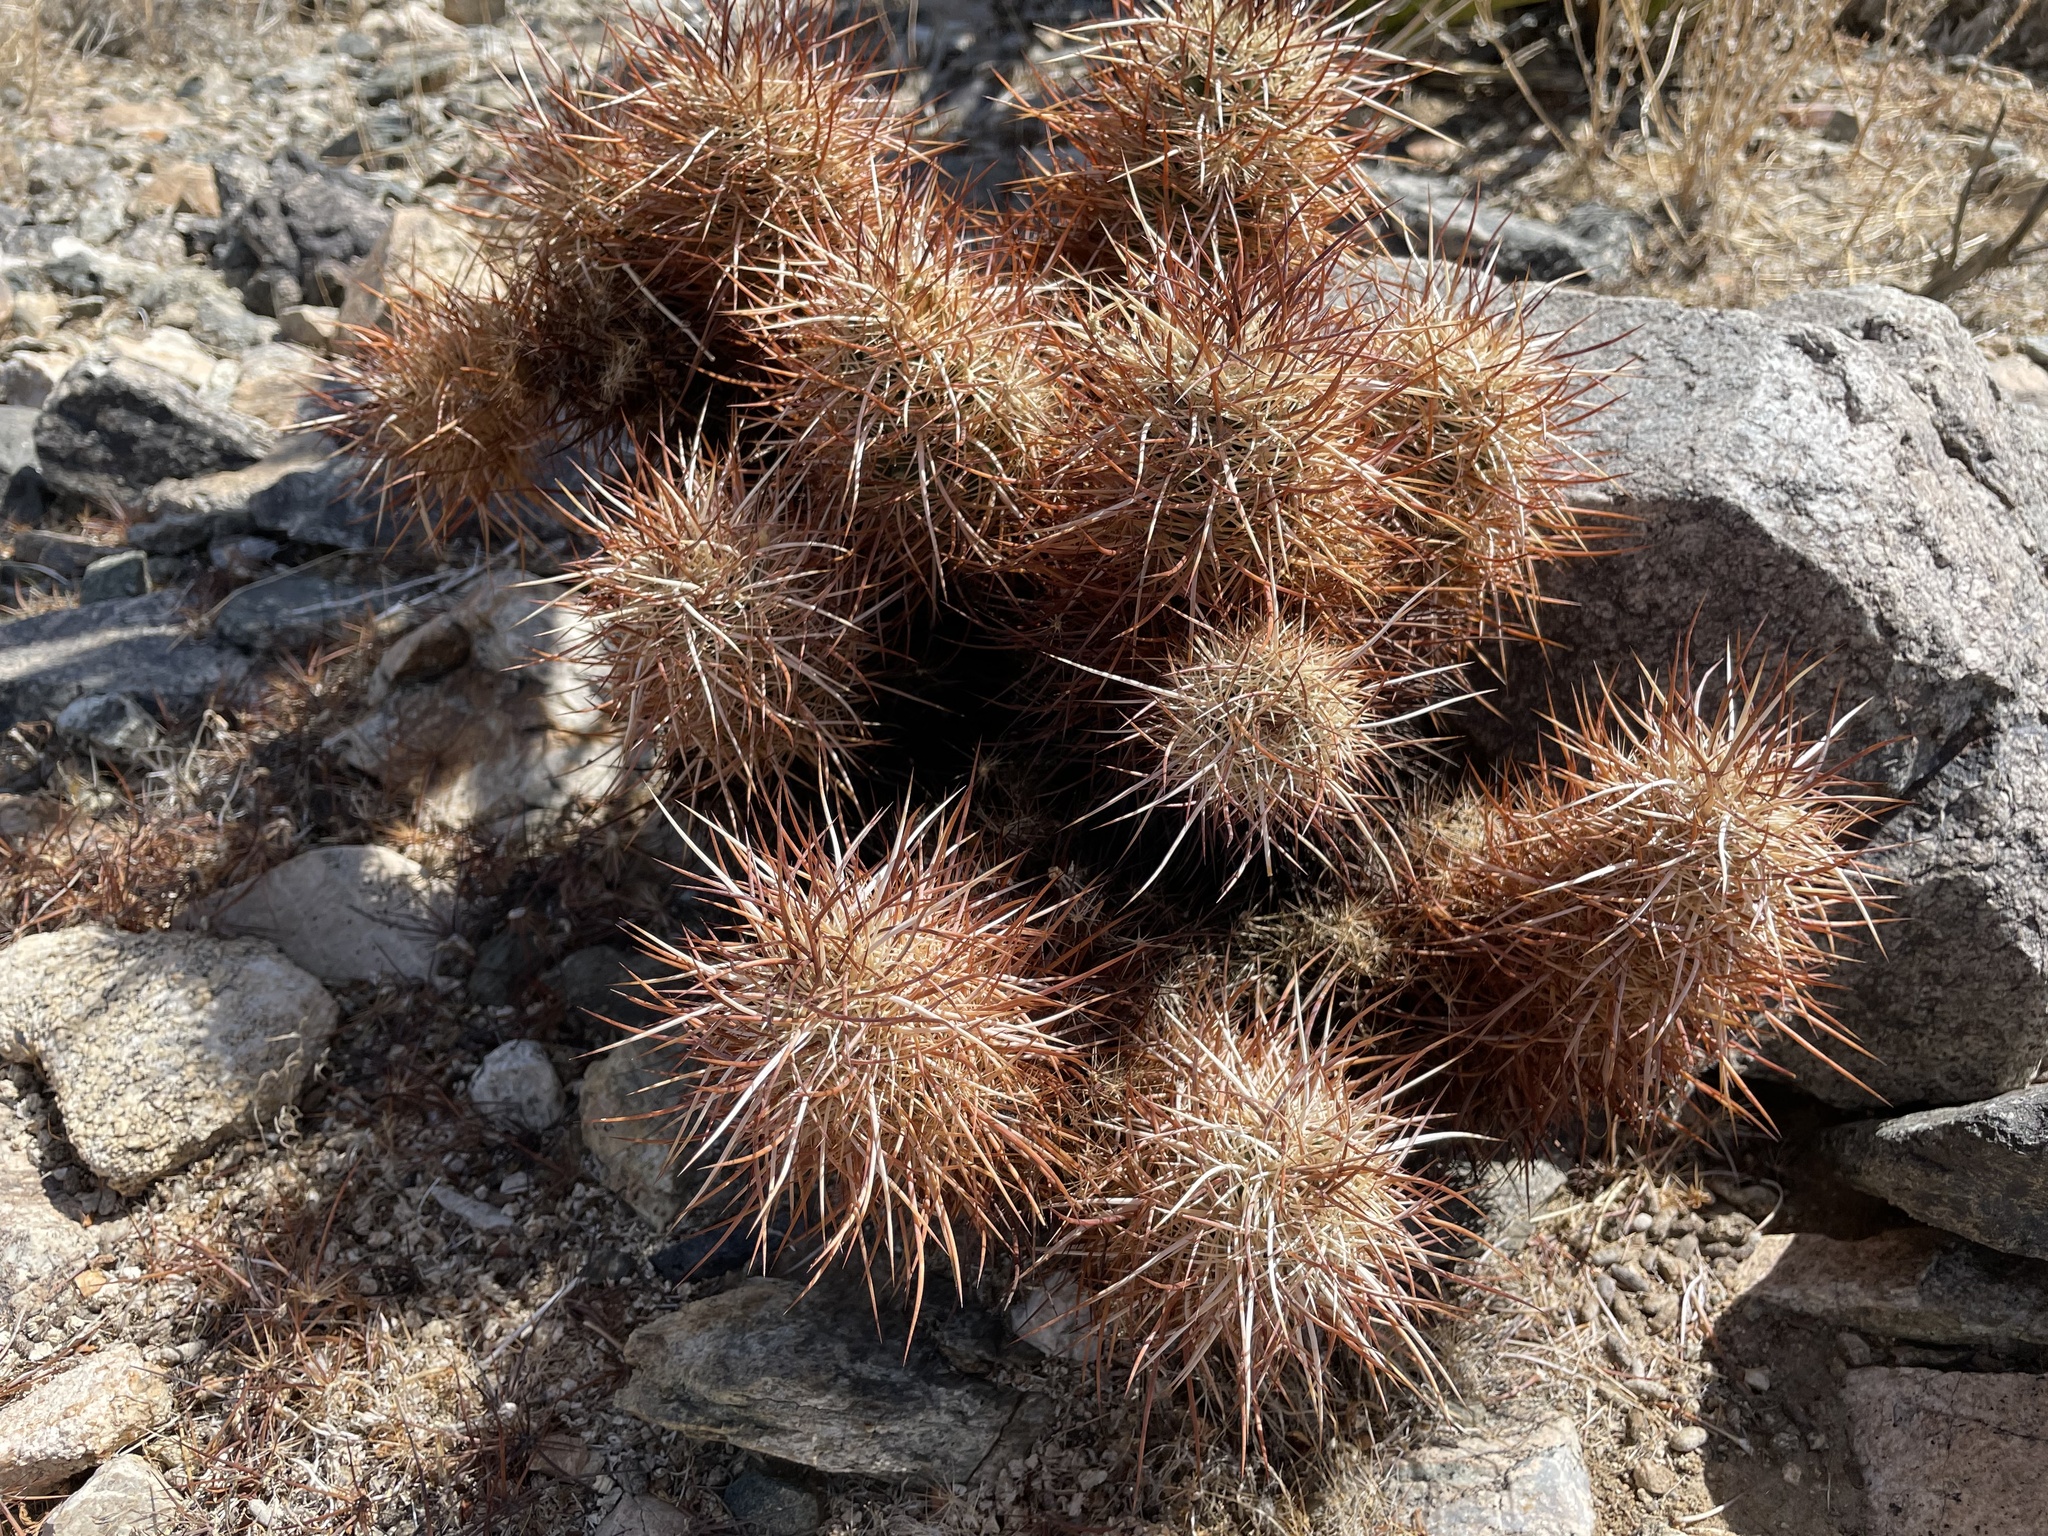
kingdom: Plantae
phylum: Tracheophyta
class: Magnoliopsida
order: Caryophyllales
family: Cactaceae
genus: Echinocereus
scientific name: Echinocereus engelmannii
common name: Engelmann's hedgehog cactus
